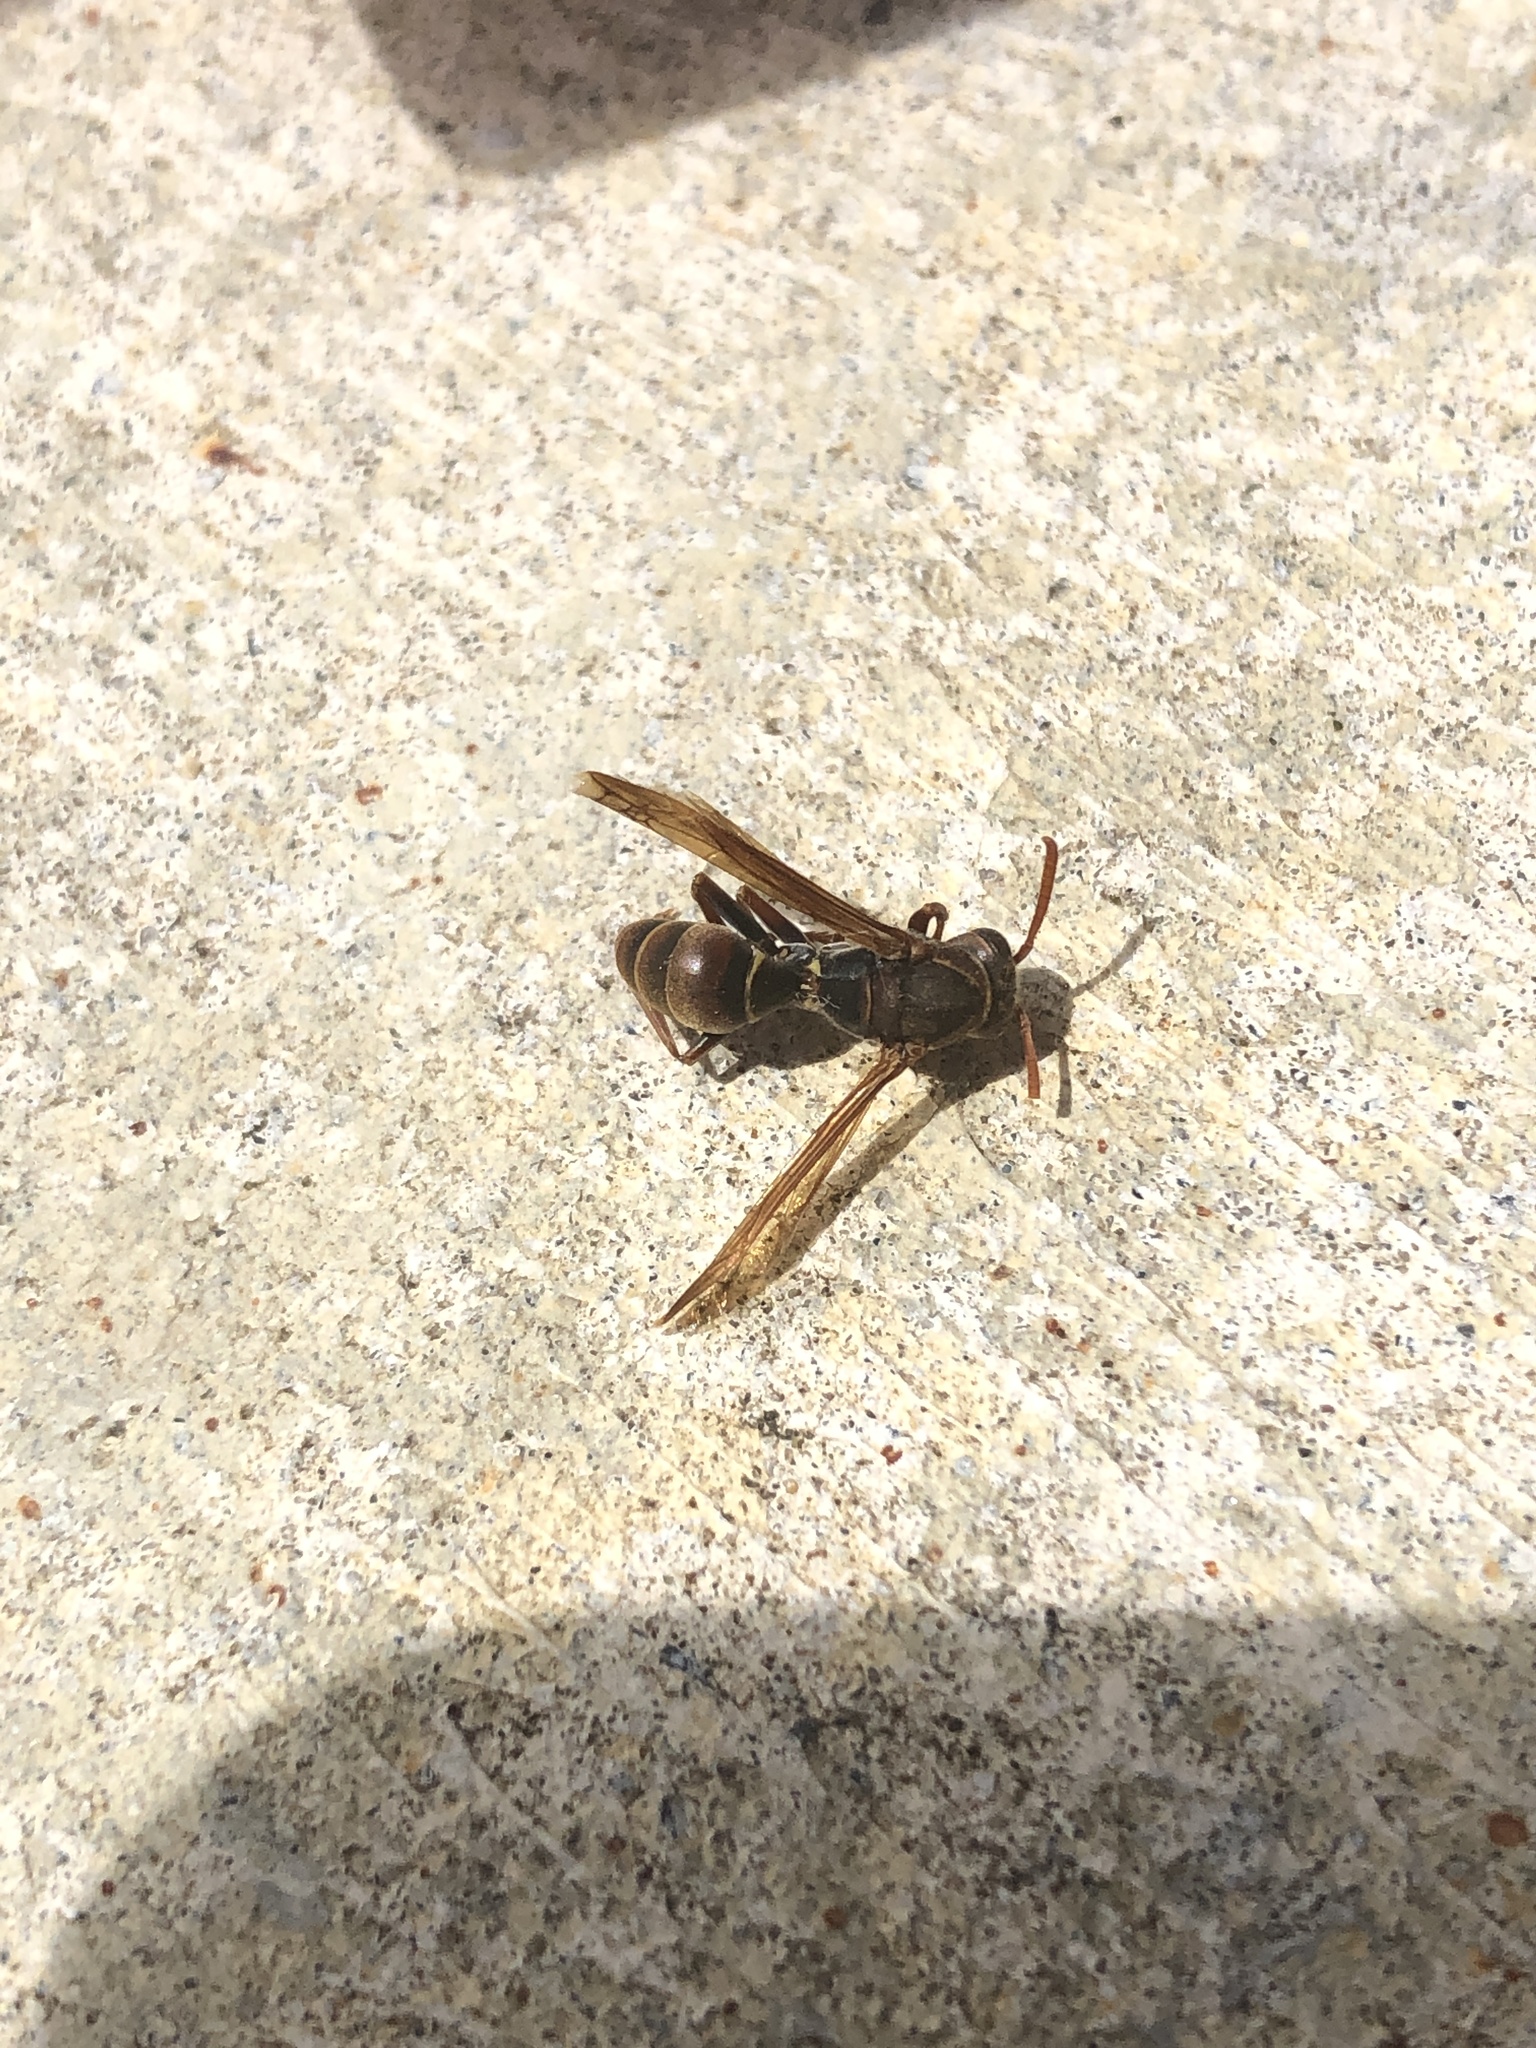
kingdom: Animalia
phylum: Arthropoda
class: Insecta
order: Hymenoptera
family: Eumenidae
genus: Polistes
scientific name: Polistes humilis
